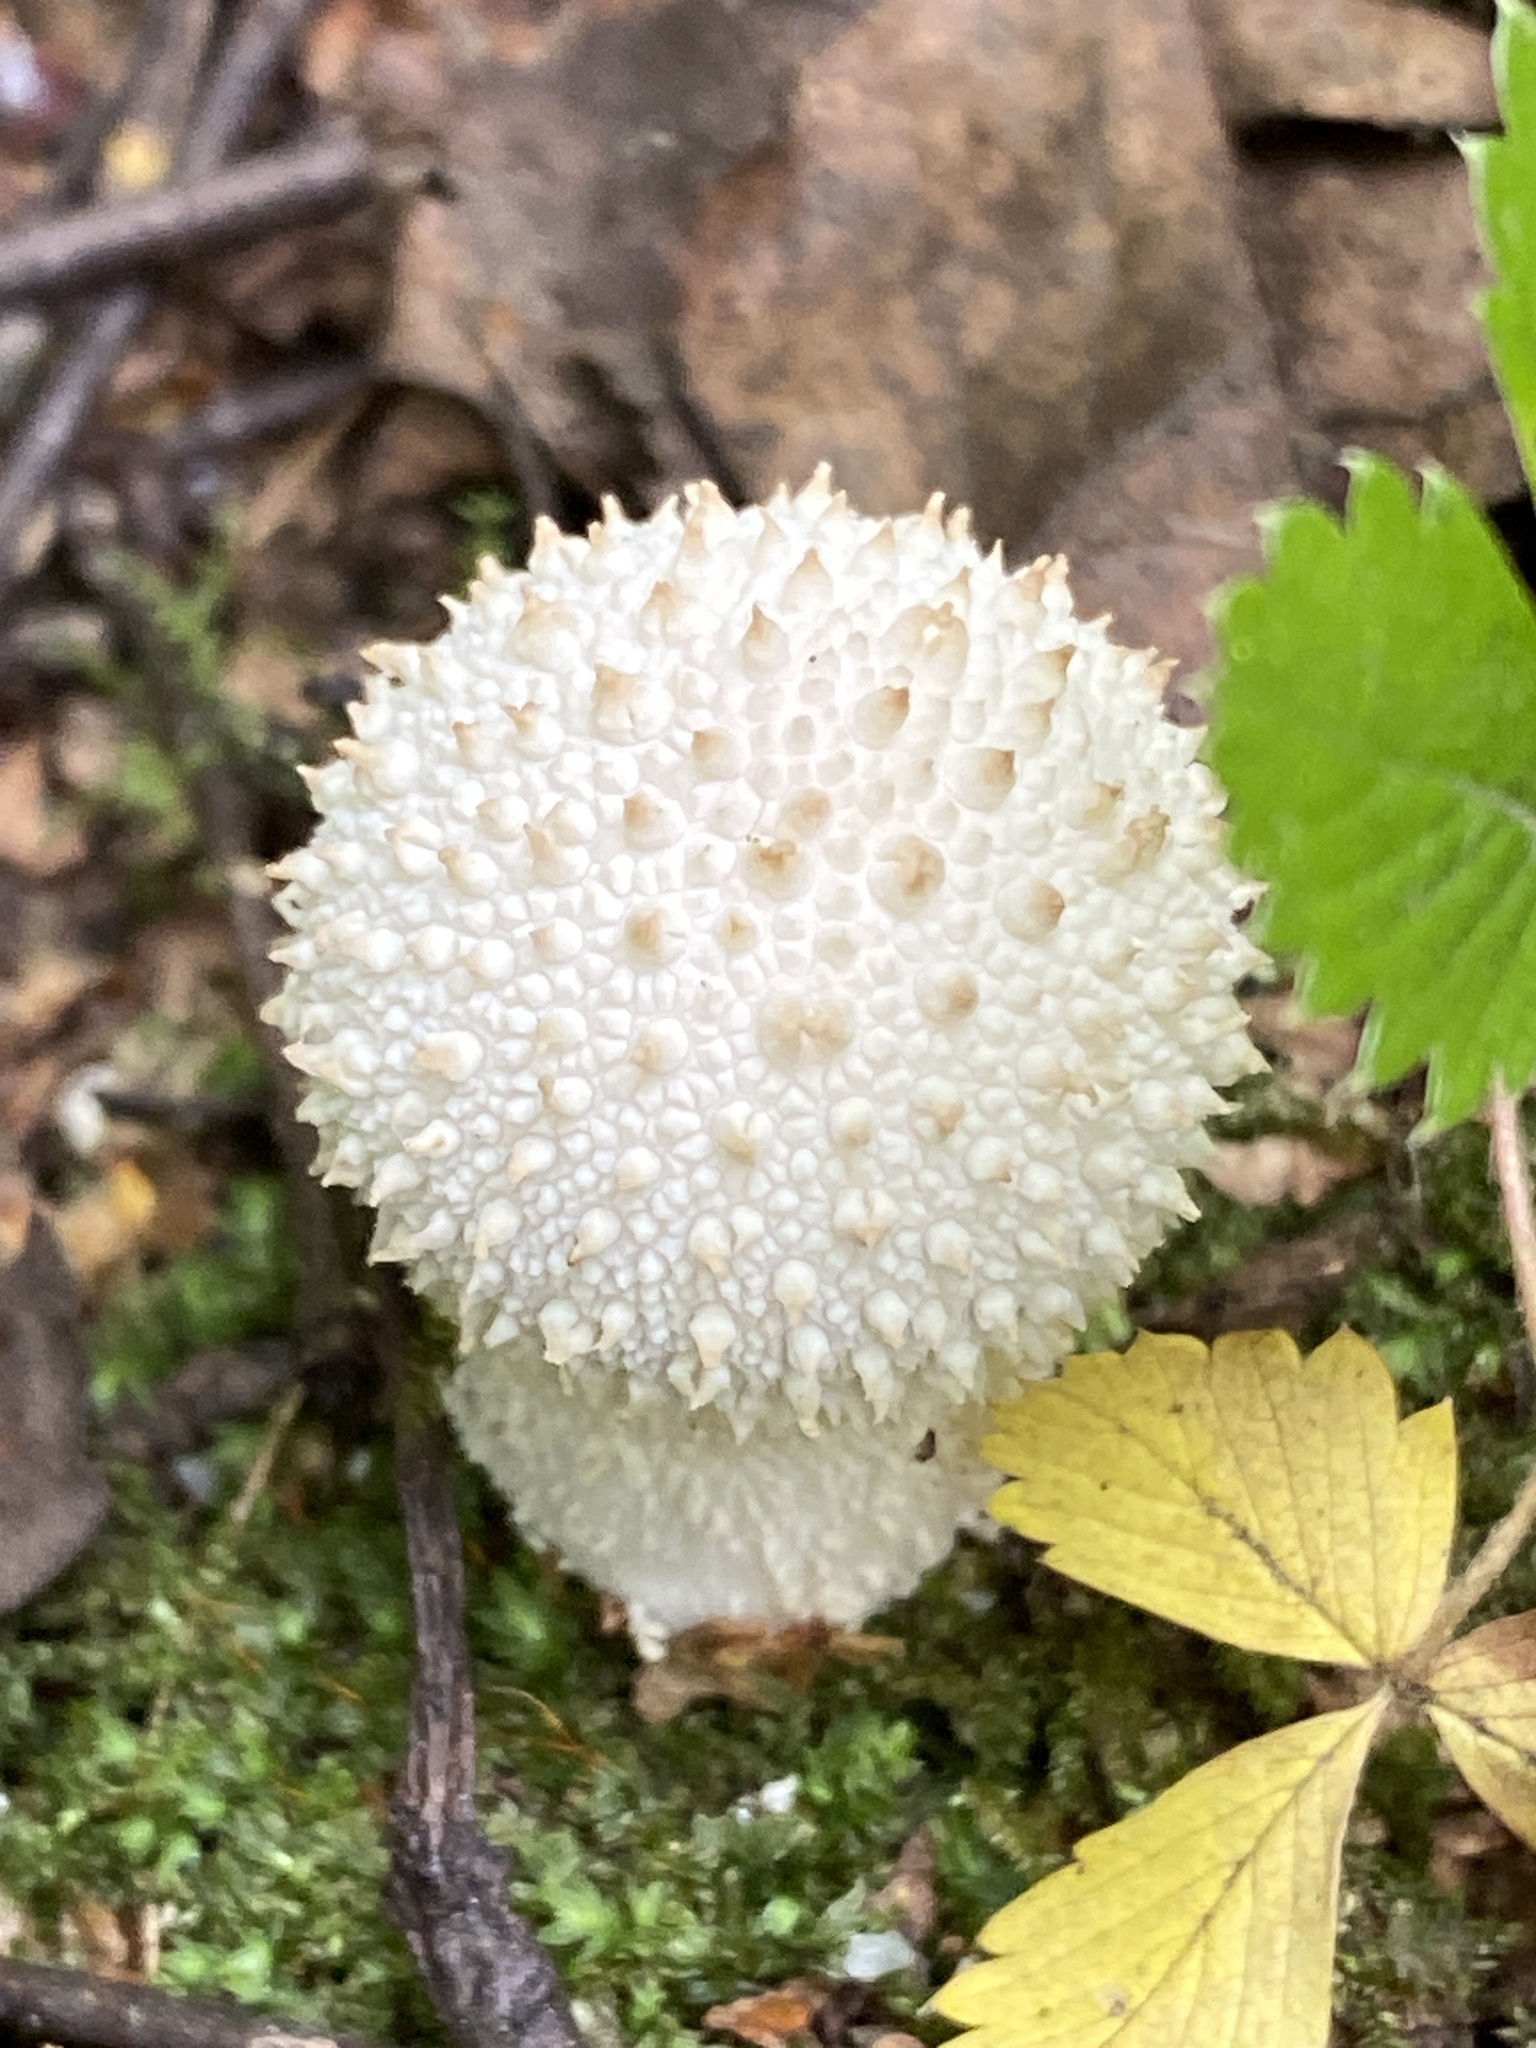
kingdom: Fungi
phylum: Basidiomycota
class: Agaricomycetes
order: Agaricales
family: Lycoperdaceae
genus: Lycoperdon
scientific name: Lycoperdon perlatum
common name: Common puffball
